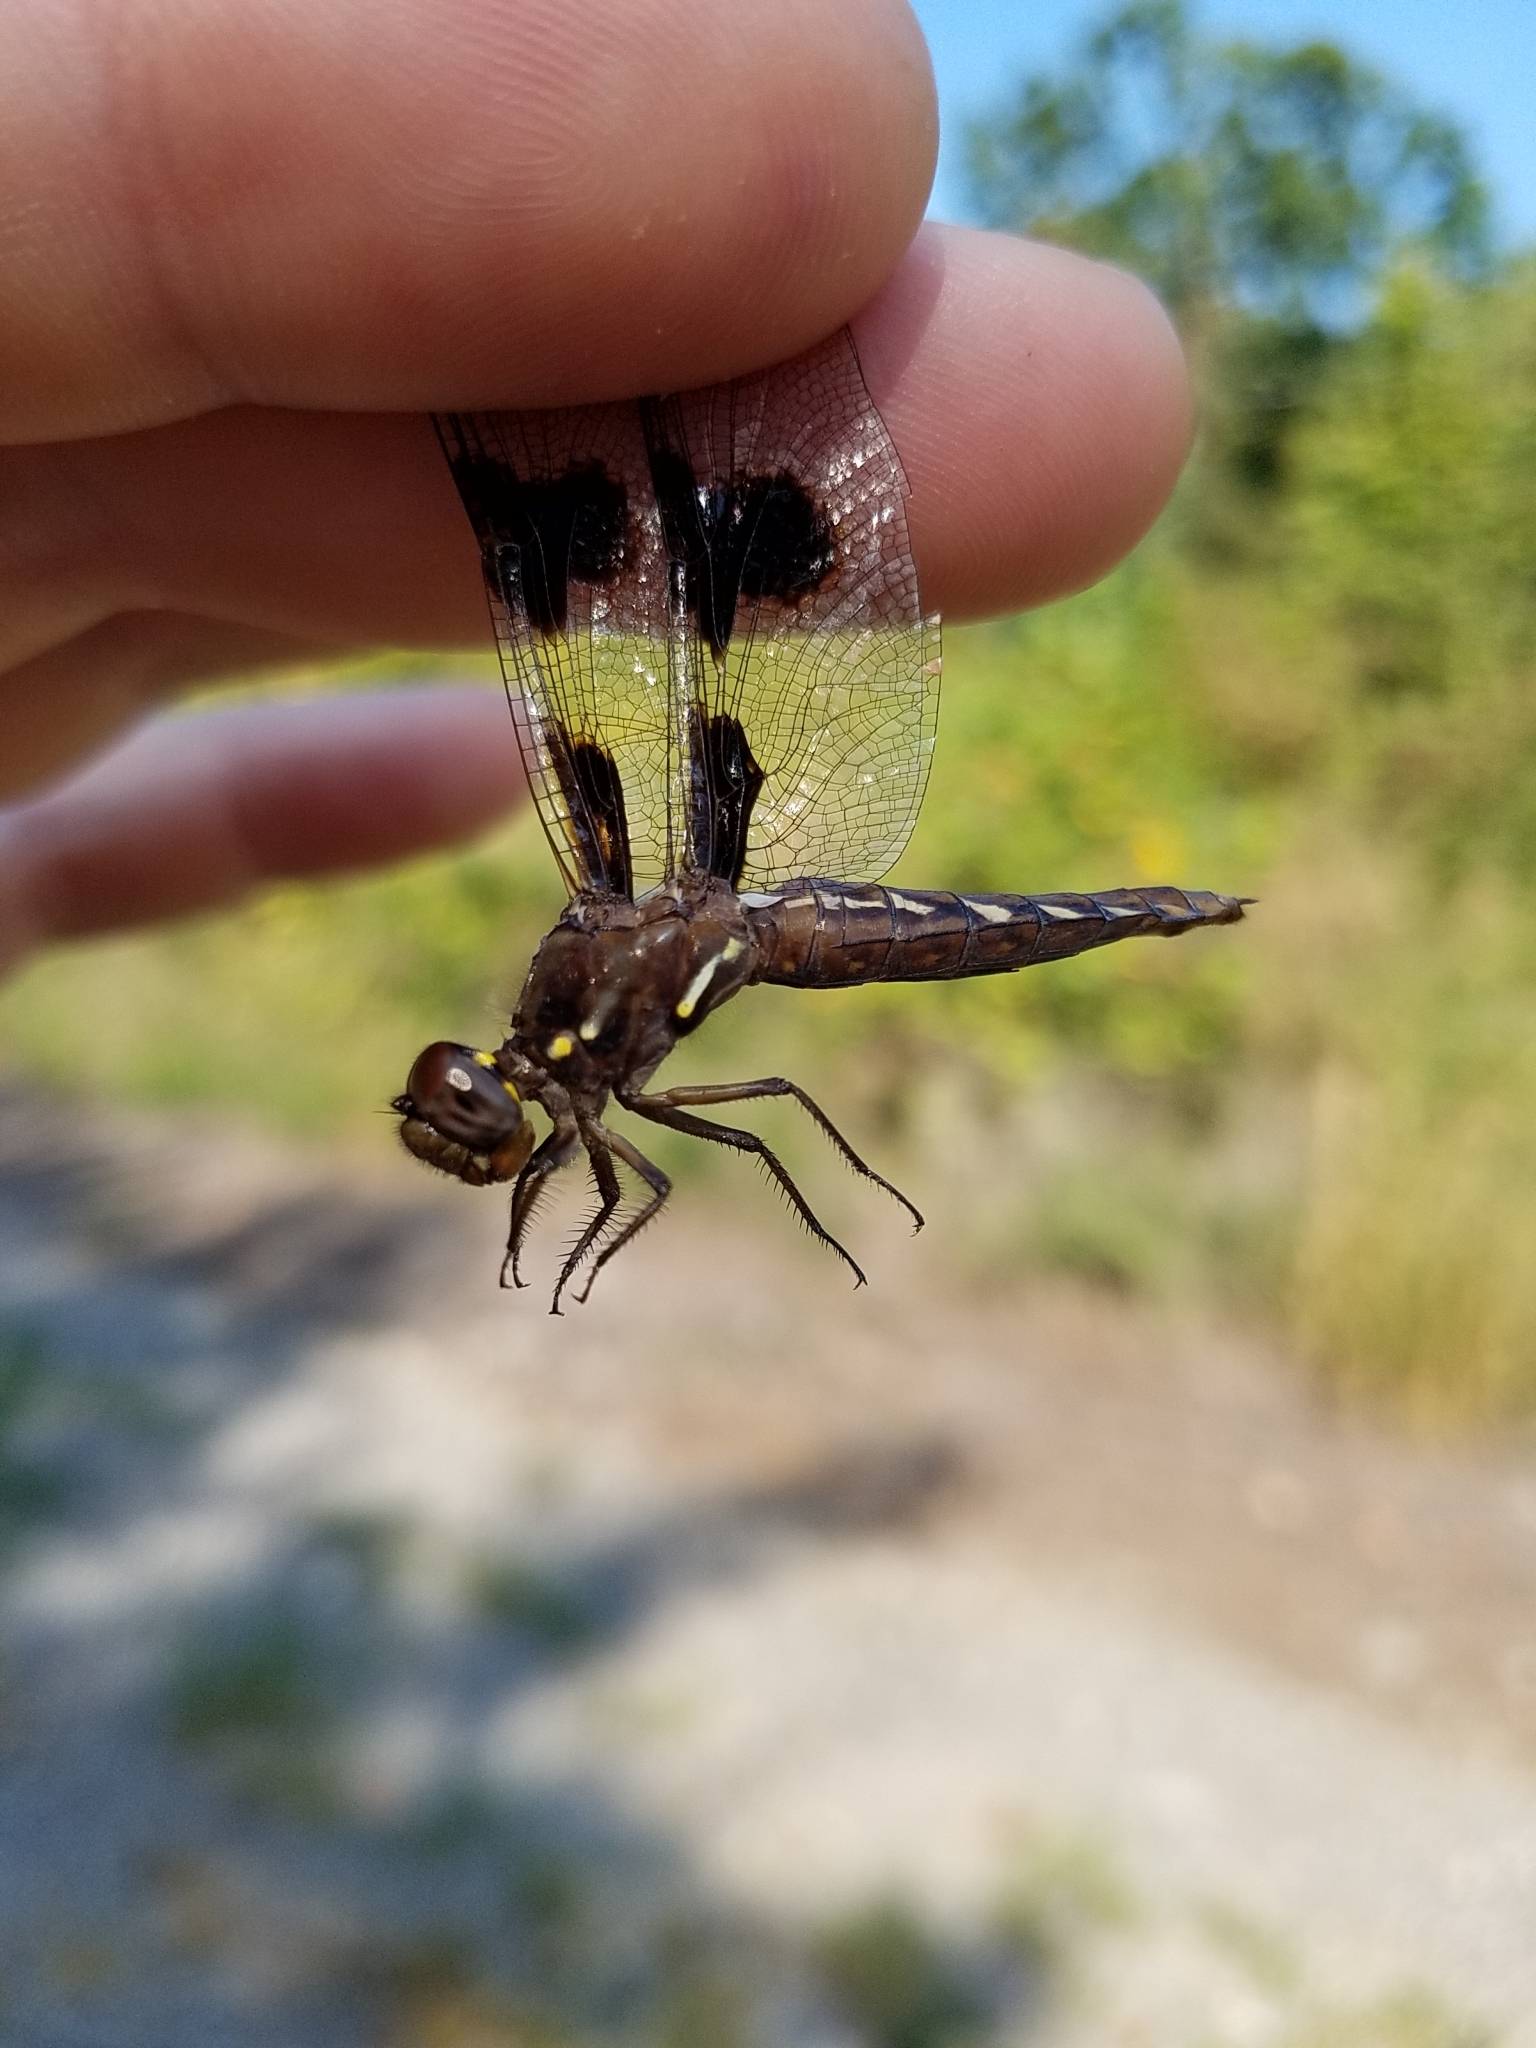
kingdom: Animalia
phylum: Arthropoda
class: Insecta
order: Odonata
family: Libellulidae
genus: Plathemis
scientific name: Plathemis lydia
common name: Common whitetail
